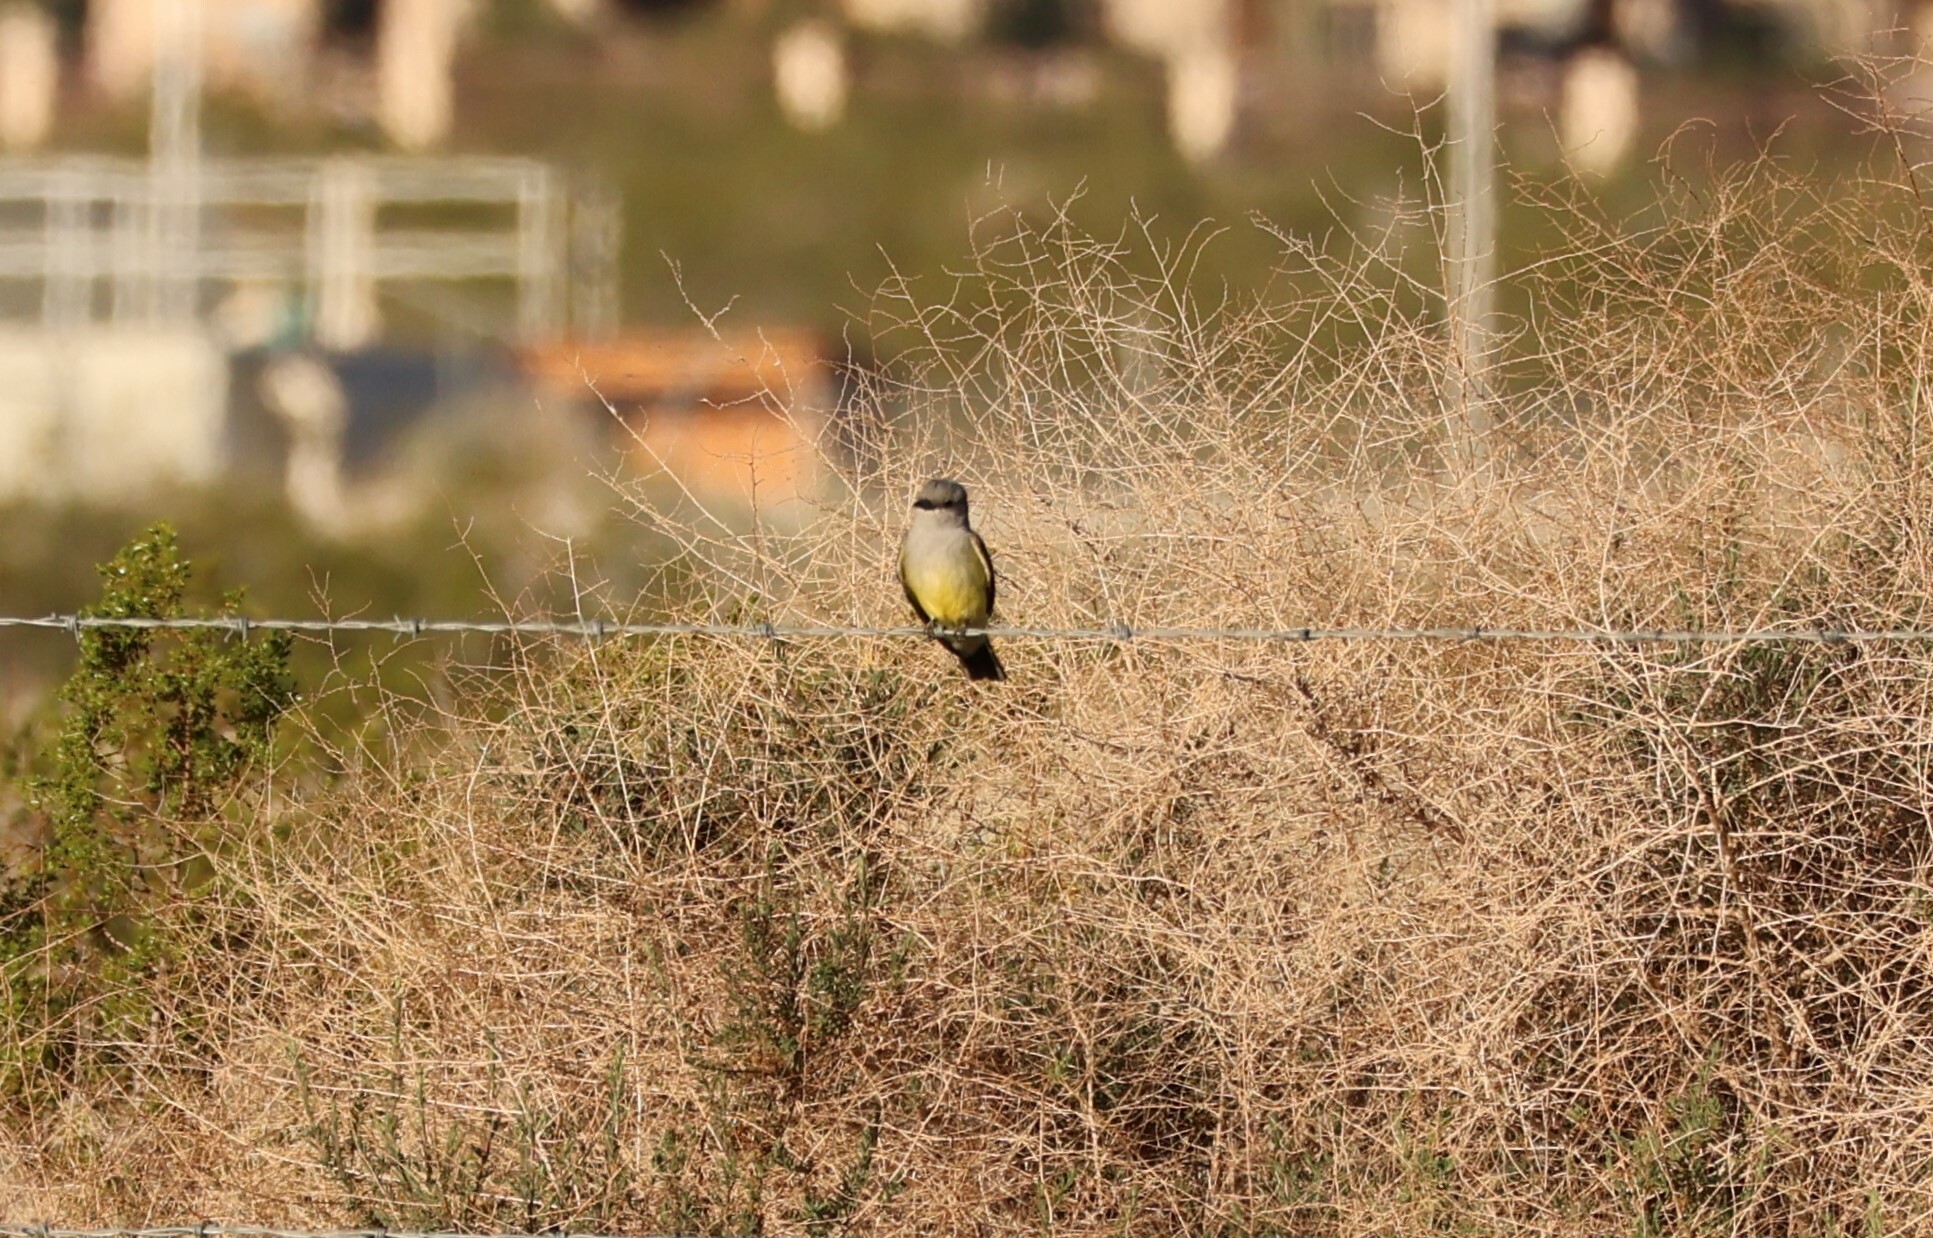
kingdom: Animalia
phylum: Chordata
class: Aves
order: Passeriformes
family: Tyrannidae
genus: Tyrannus
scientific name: Tyrannus verticalis
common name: Western kingbird
